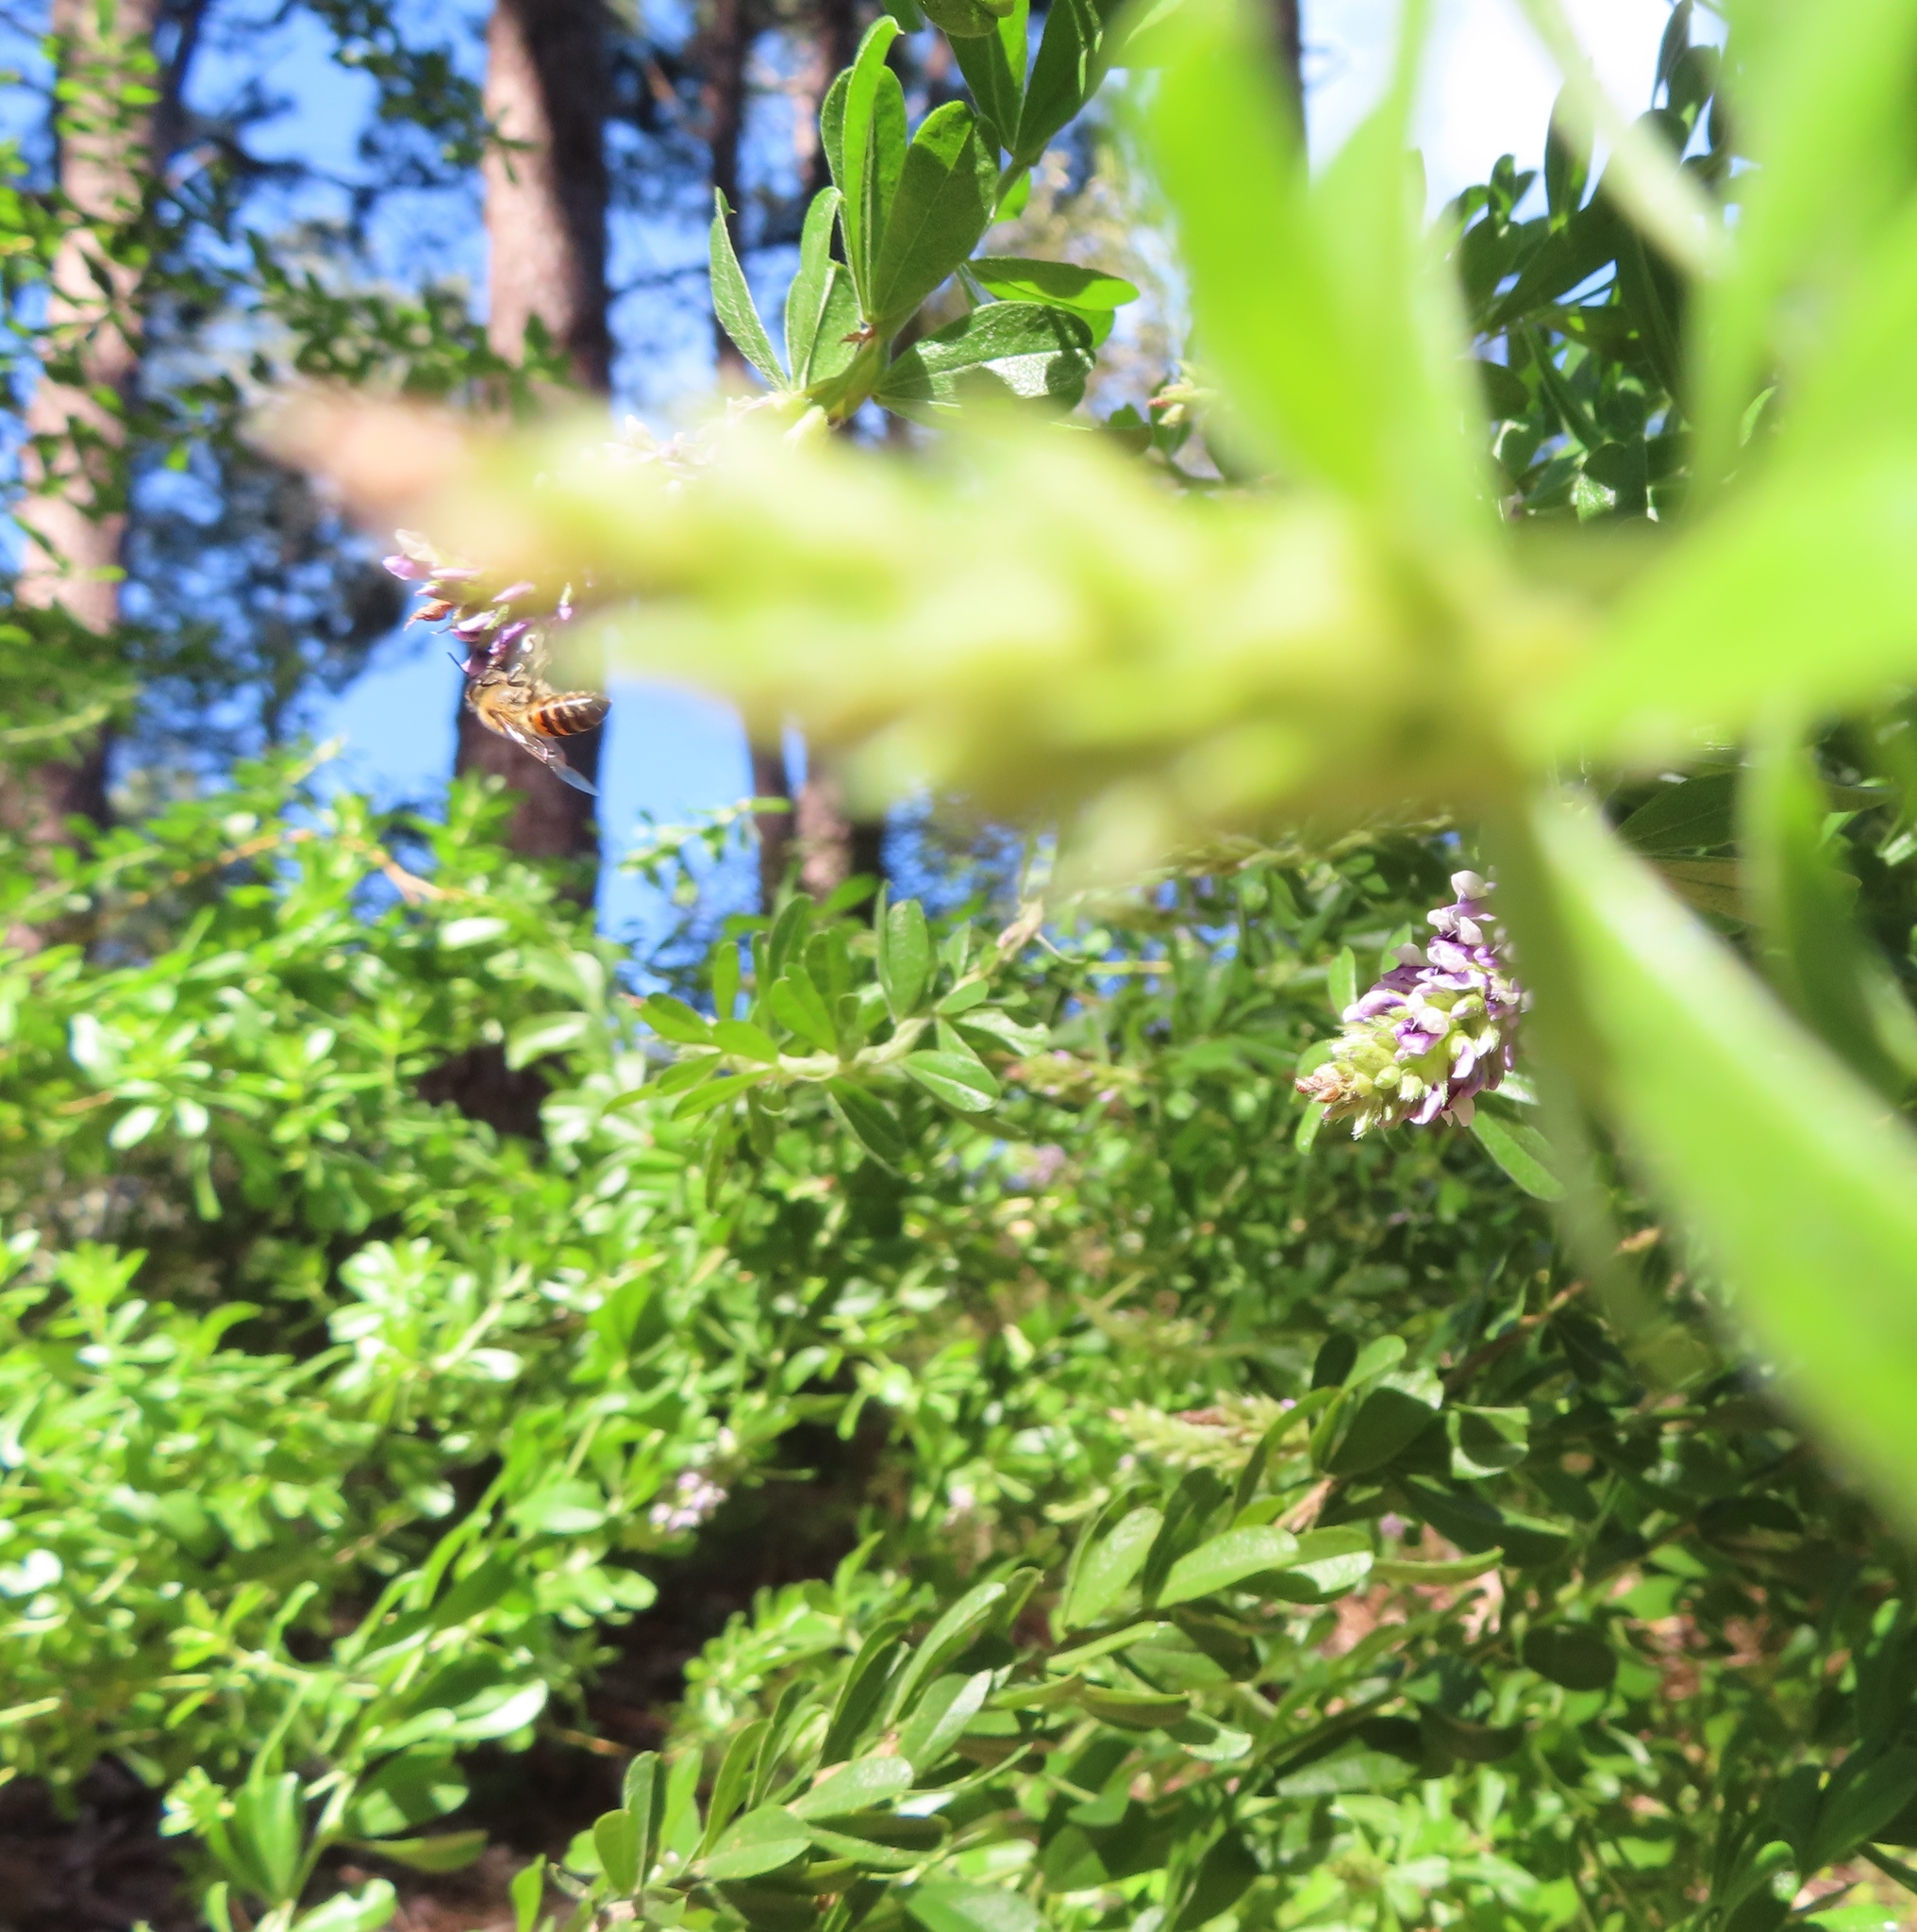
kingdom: Plantae
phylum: Tracheophyta
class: Magnoliopsida
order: Fabales
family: Fabaceae
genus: Psoralea
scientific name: Psoralea spicata
